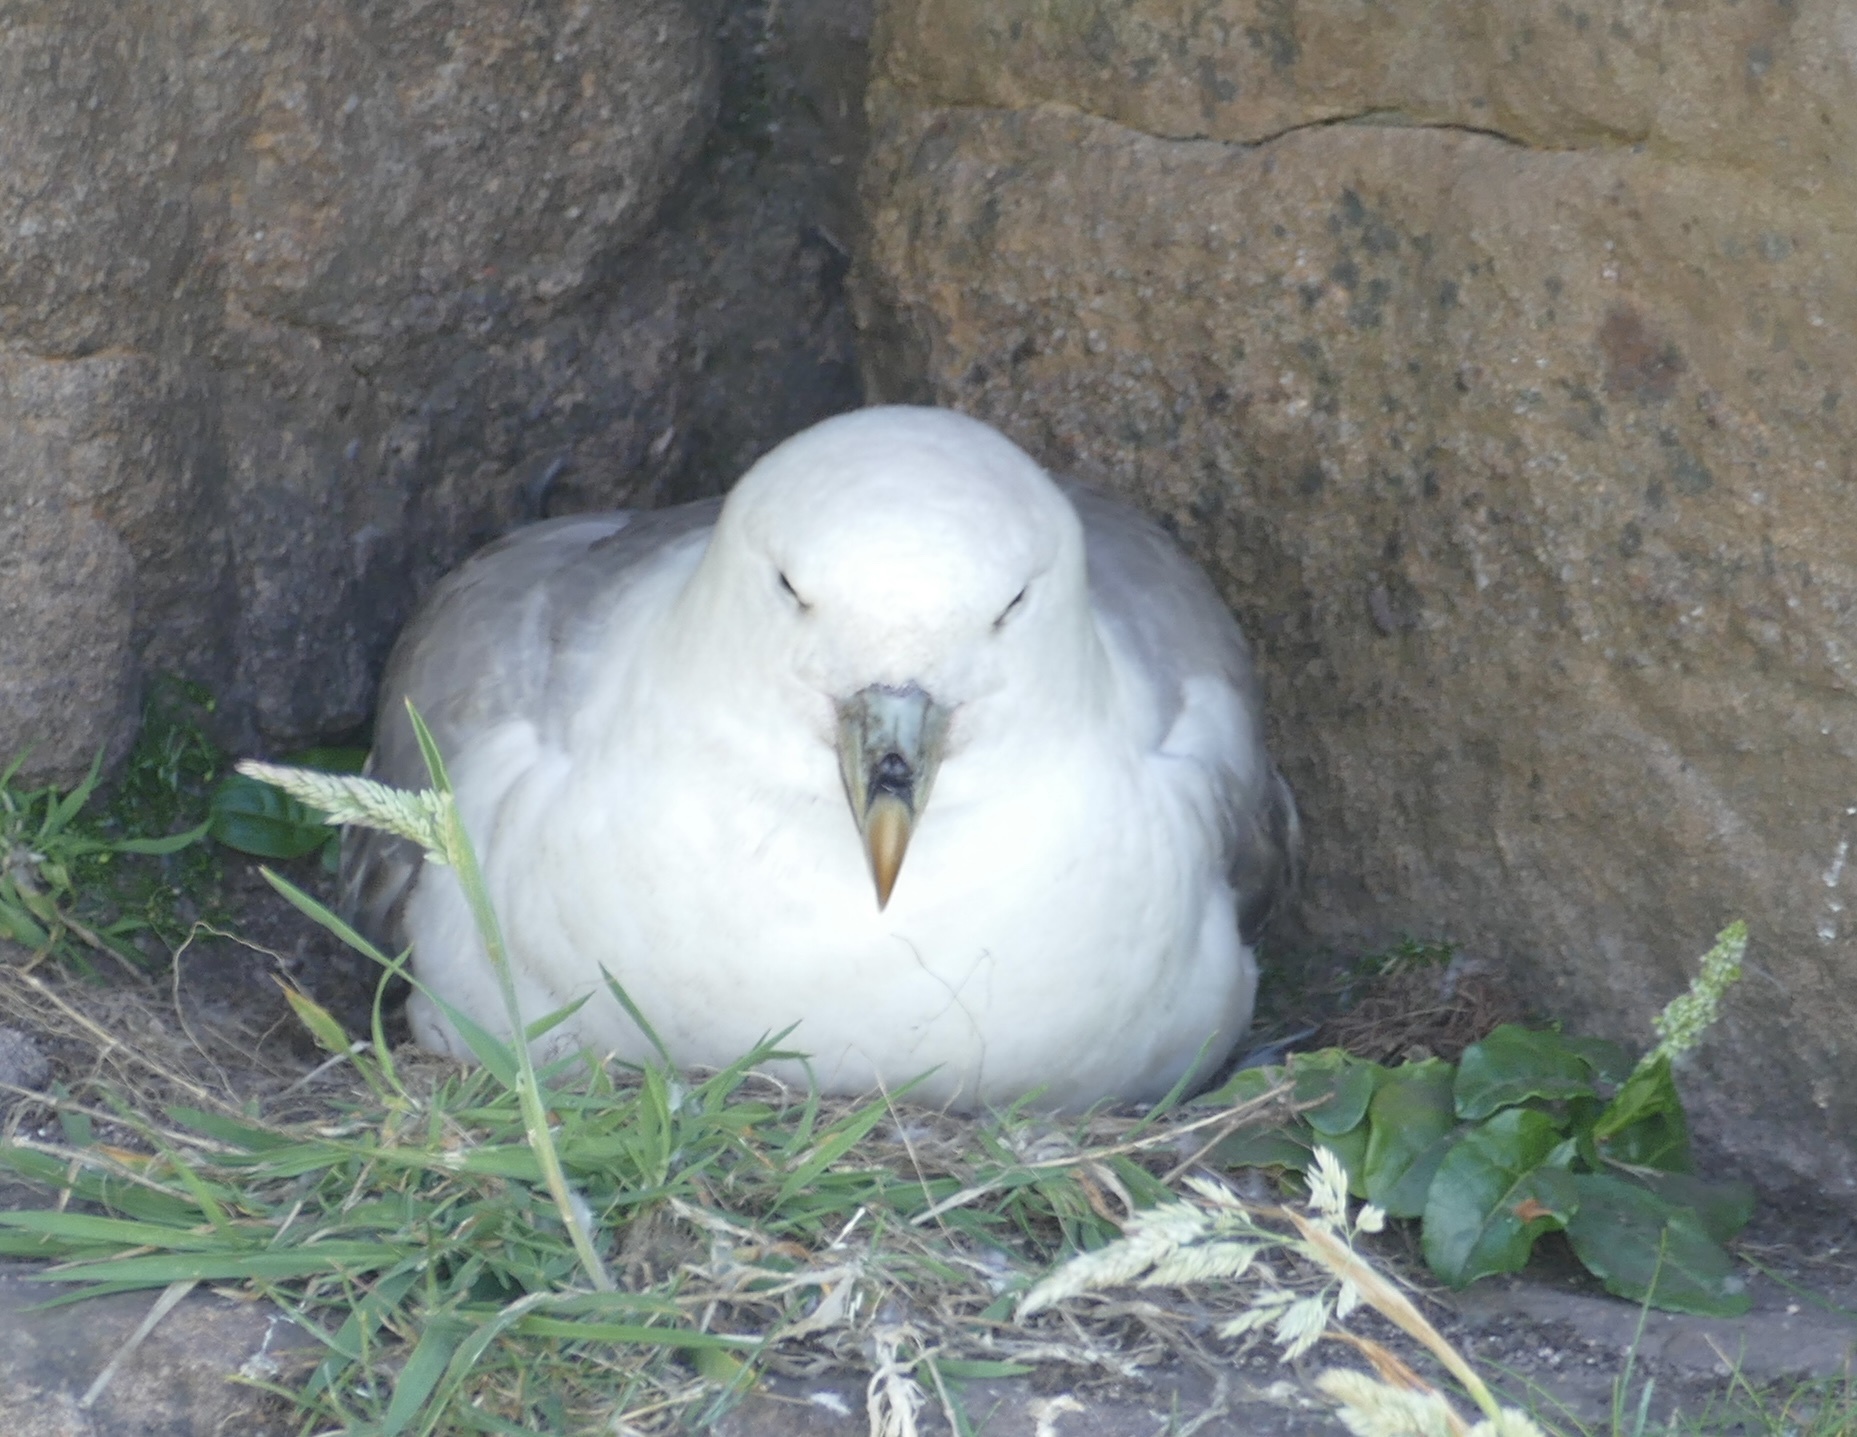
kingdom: Animalia
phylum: Chordata
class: Aves
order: Procellariiformes
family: Procellariidae
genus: Fulmarus
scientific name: Fulmarus glacialis
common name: Northern fulmar
